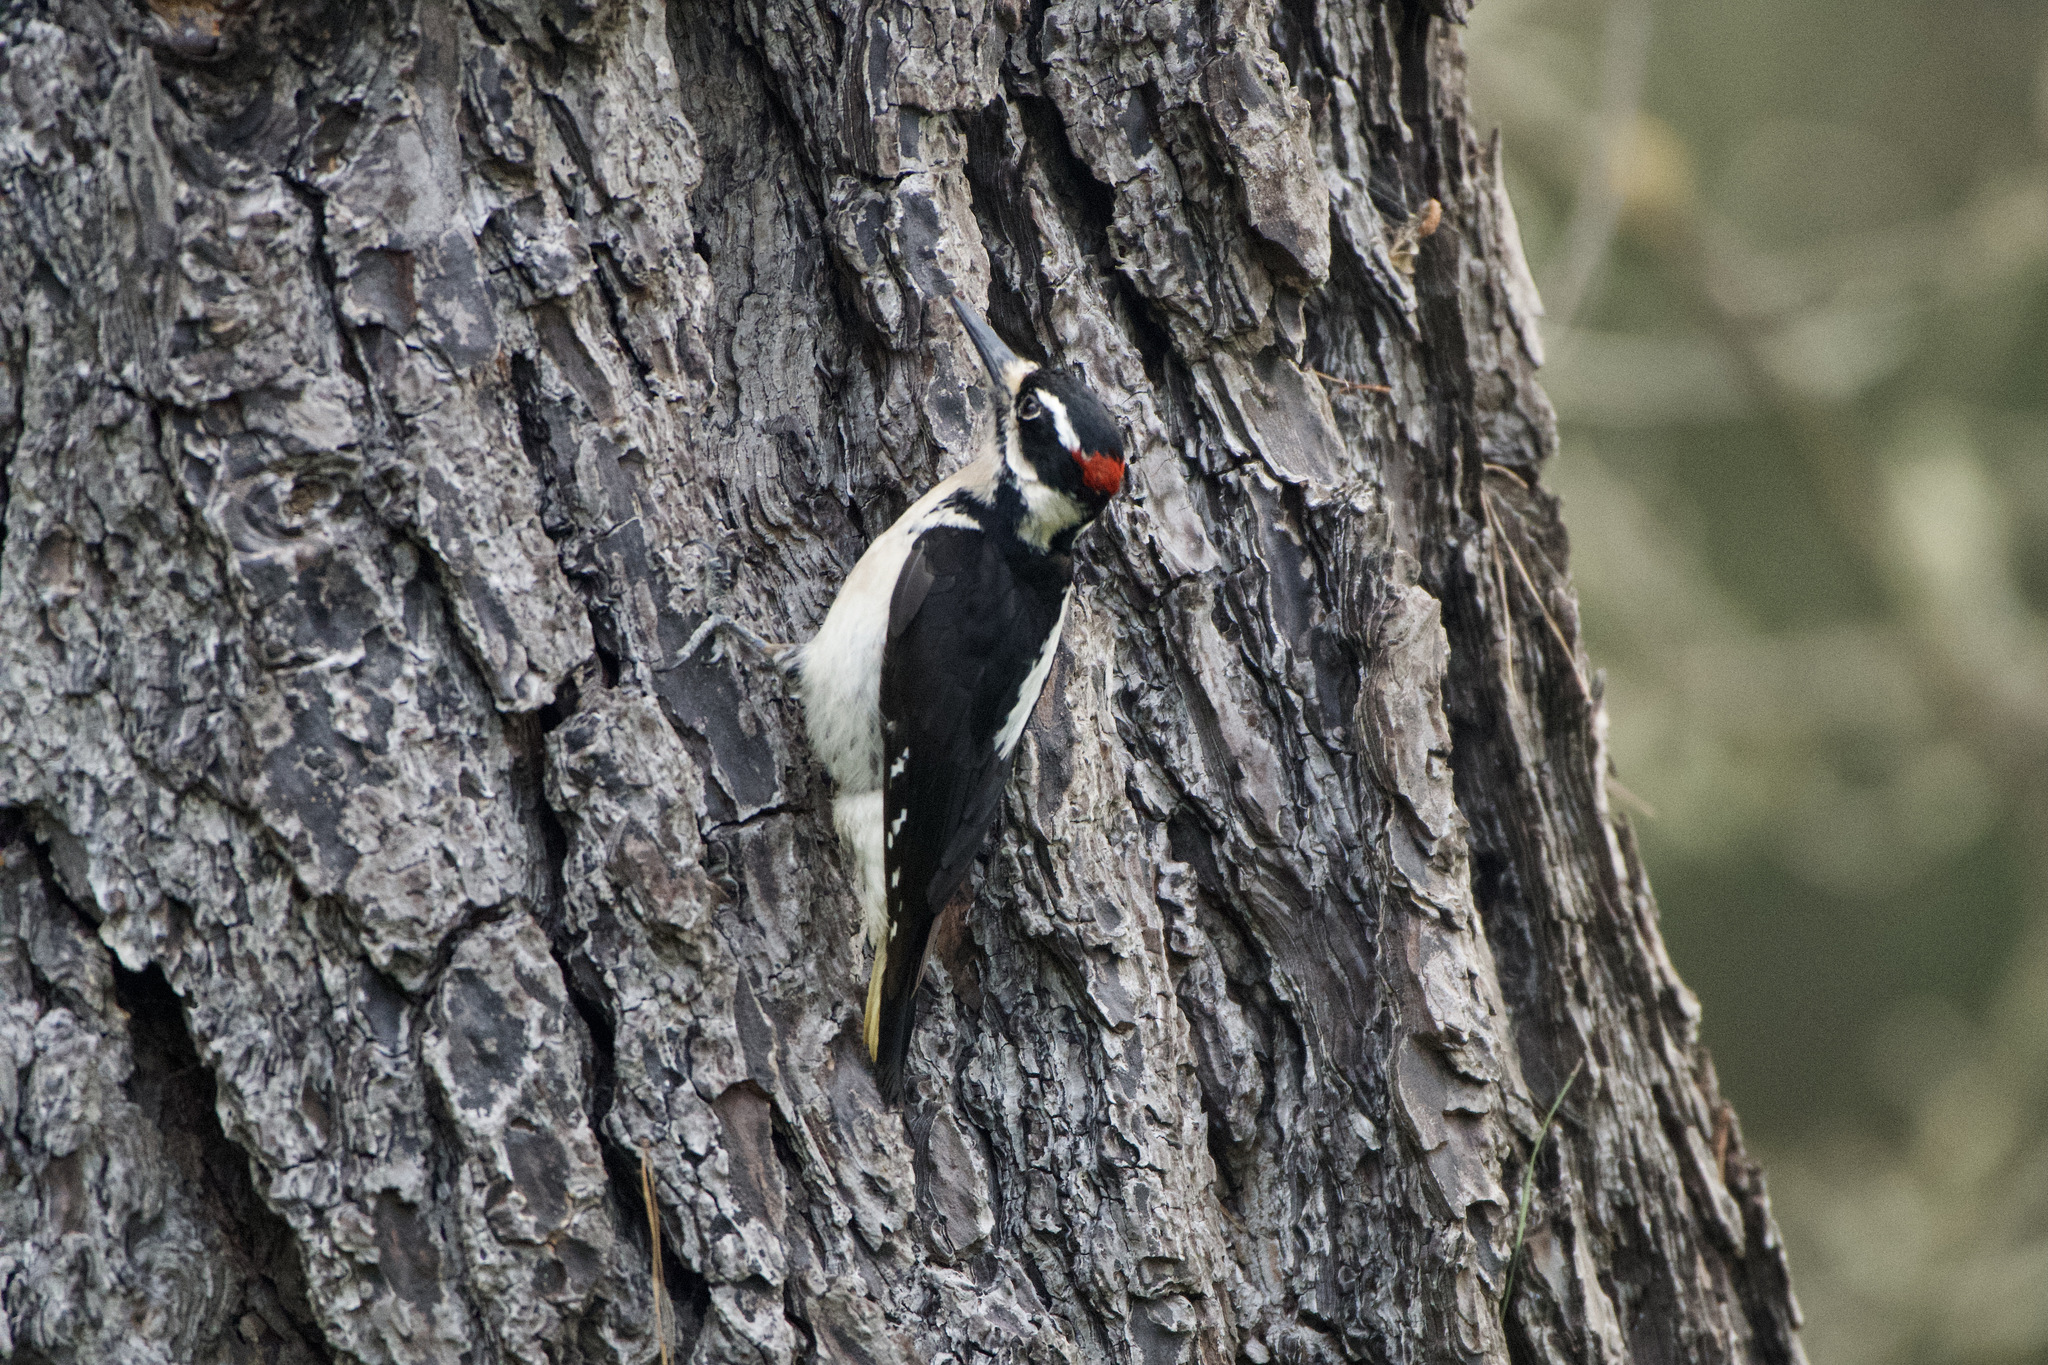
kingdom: Animalia
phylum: Chordata
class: Aves
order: Piciformes
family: Picidae
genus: Leuconotopicus
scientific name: Leuconotopicus villosus
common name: Hairy woodpecker
